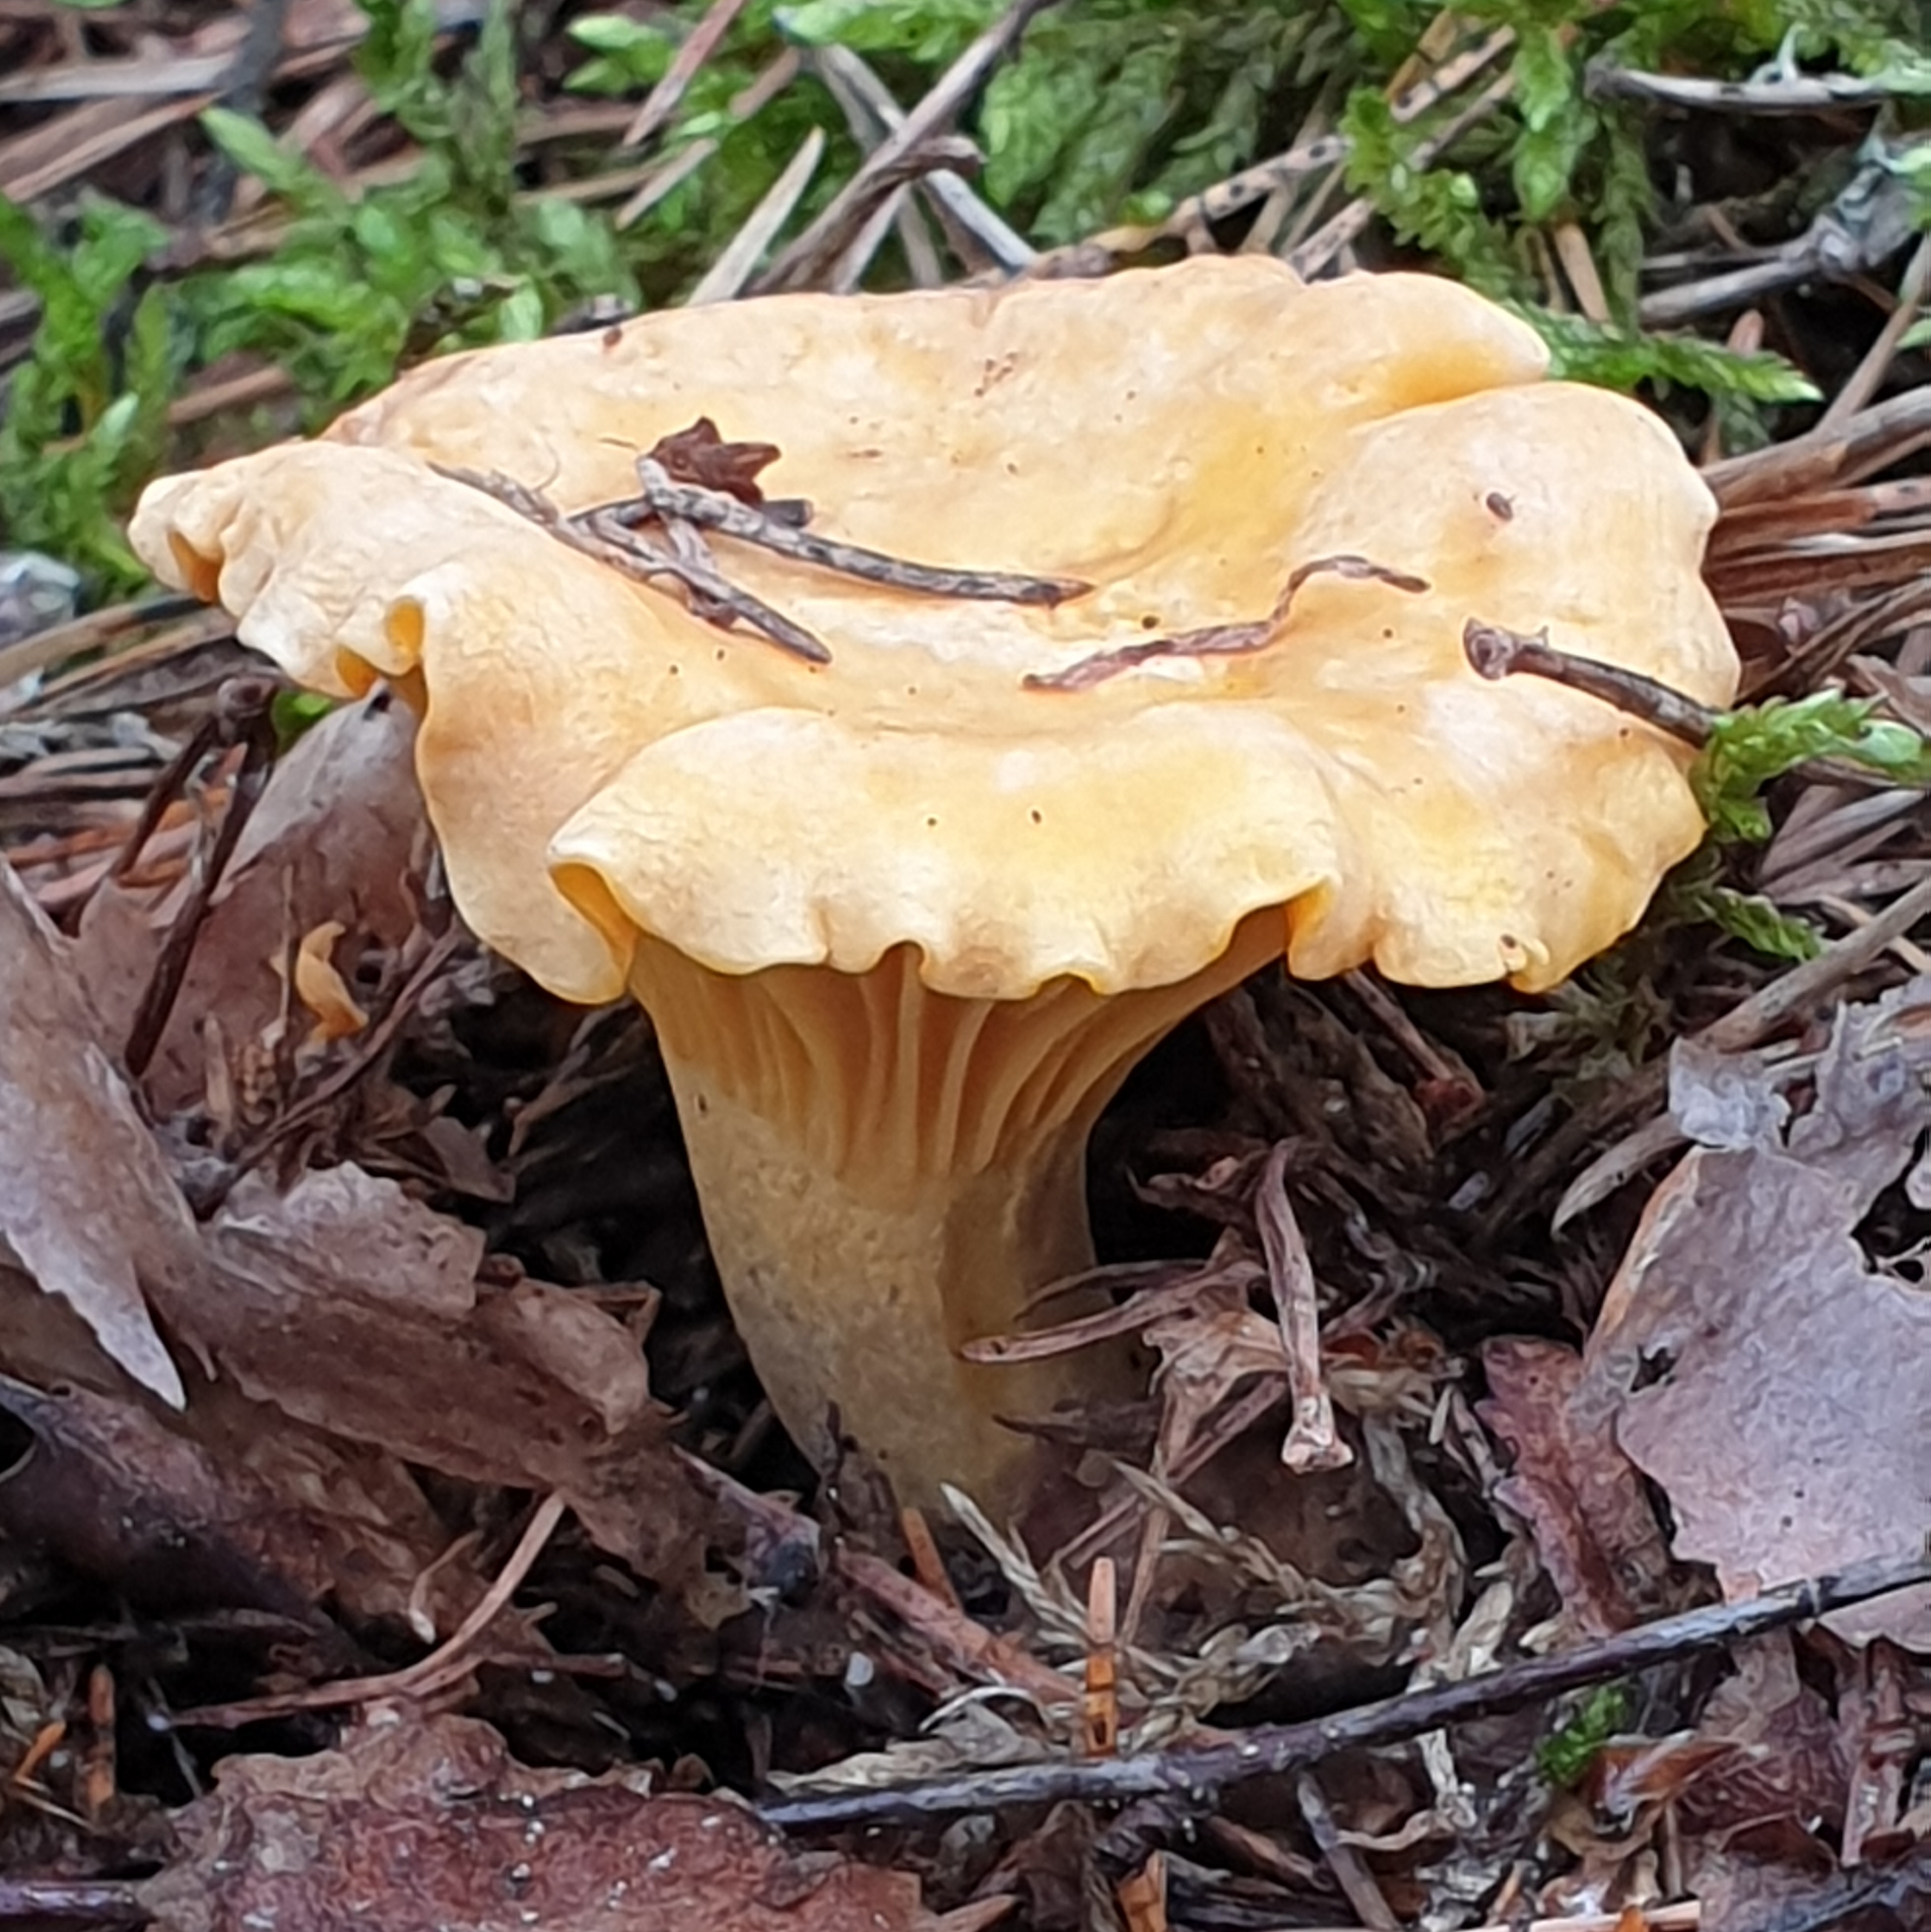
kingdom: Fungi
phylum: Basidiomycota
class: Agaricomycetes
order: Cantharellales
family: Hydnaceae
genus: Cantharellus
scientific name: Cantharellus cibarius
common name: Chanterelle
